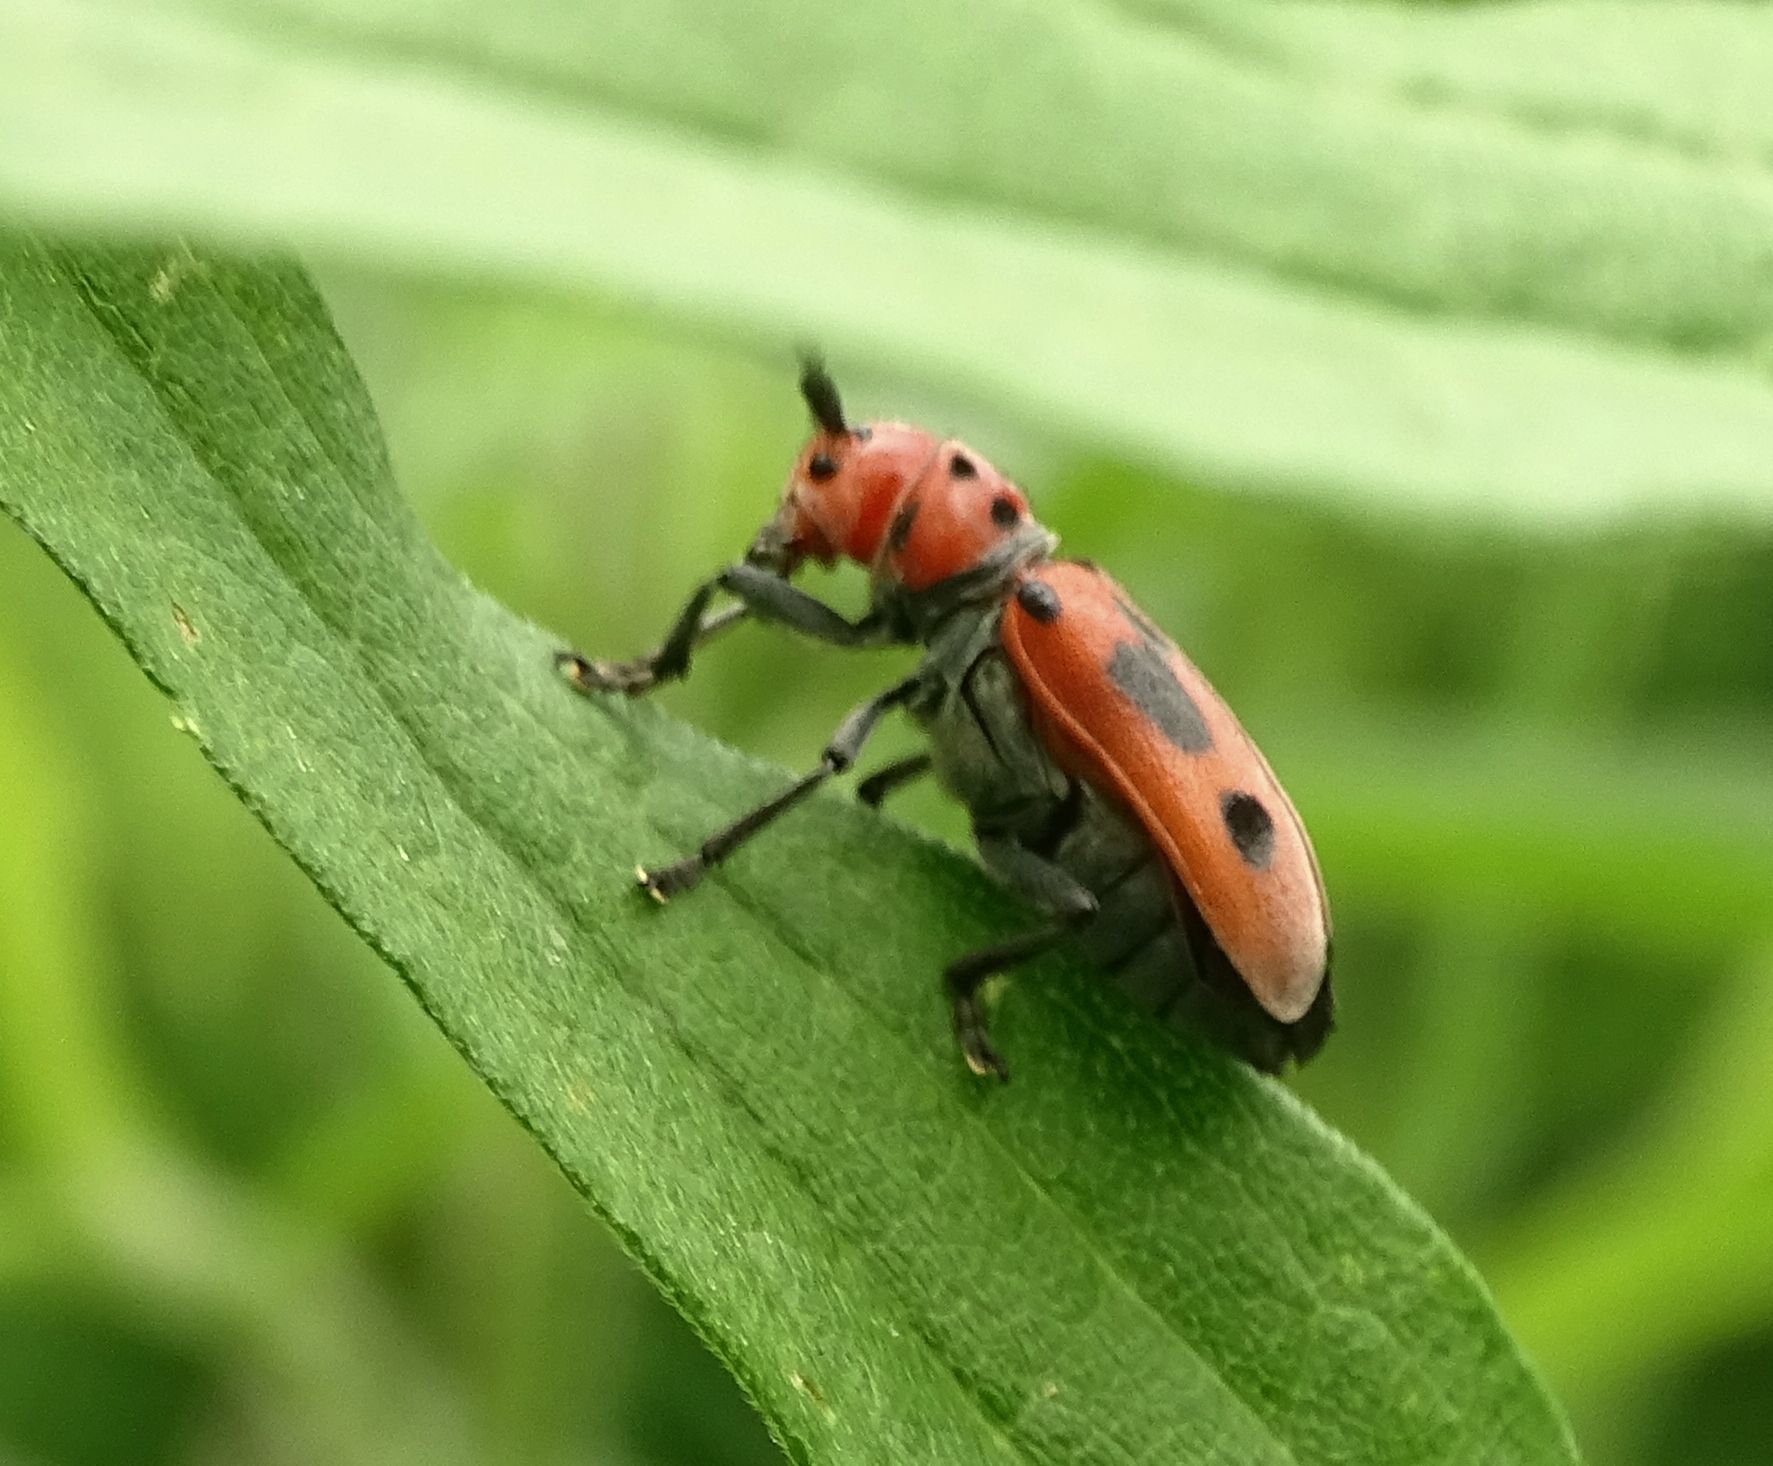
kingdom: Animalia
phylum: Arthropoda
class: Insecta
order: Coleoptera
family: Cerambycidae
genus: Tetraopes
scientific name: Tetraopes tetrophthalmus
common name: Red milkweed beetle
